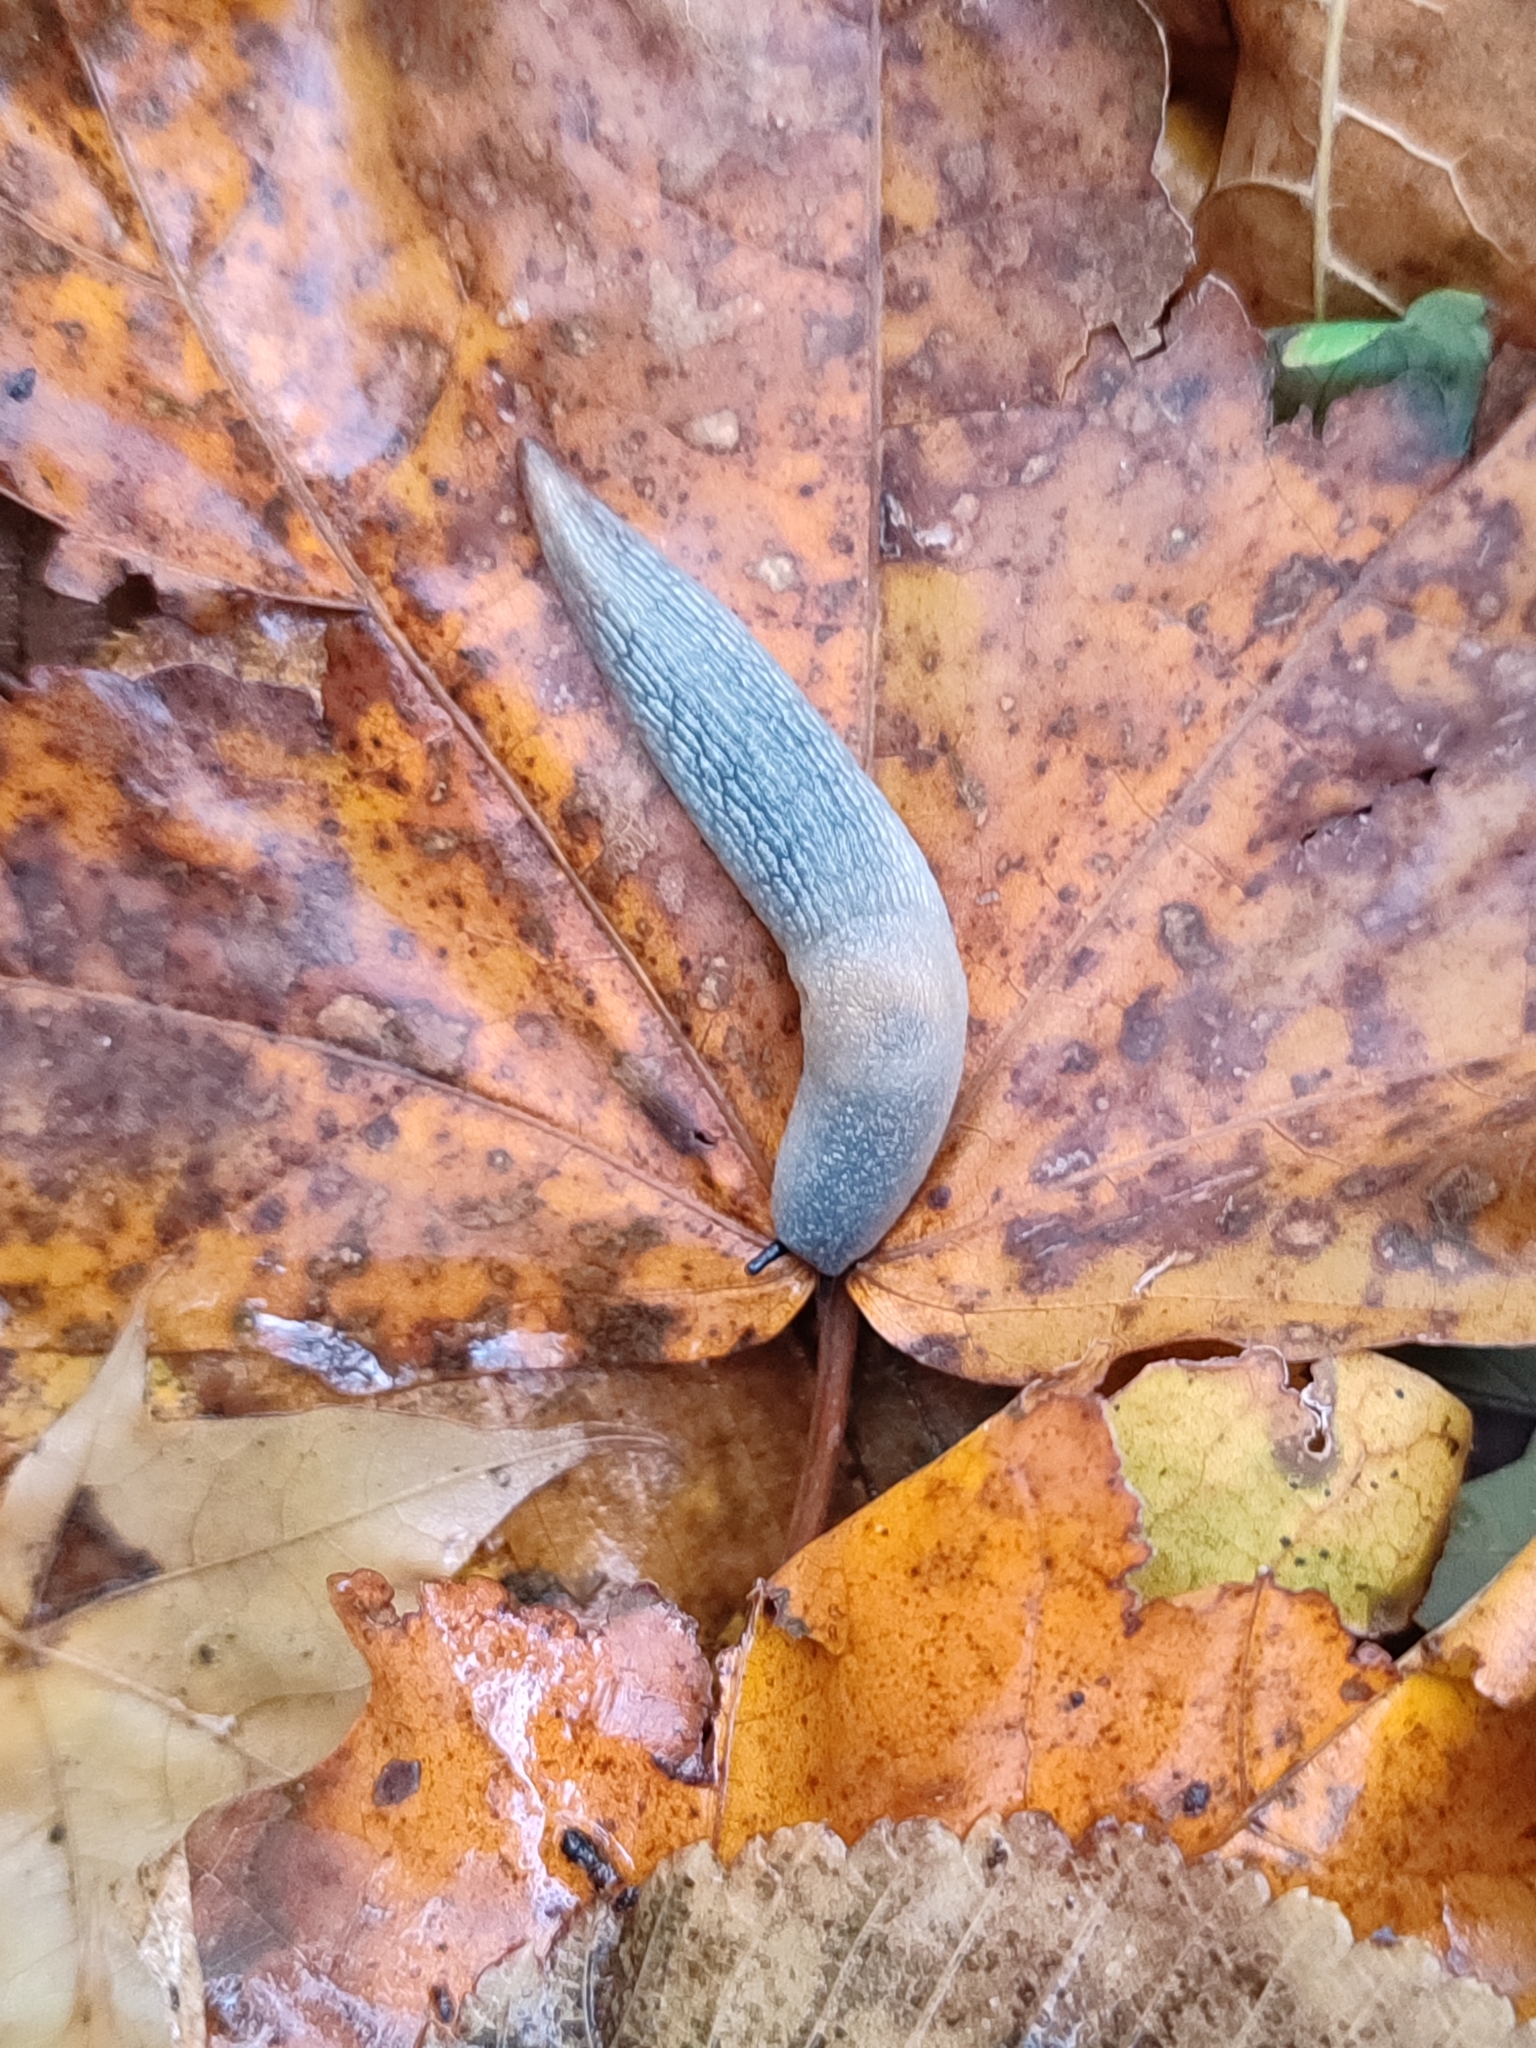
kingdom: Animalia
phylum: Mollusca
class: Gastropoda
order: Stylommatophora
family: Agriolimacidae
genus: Krynickillus
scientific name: Krynickillus melanocephalus
